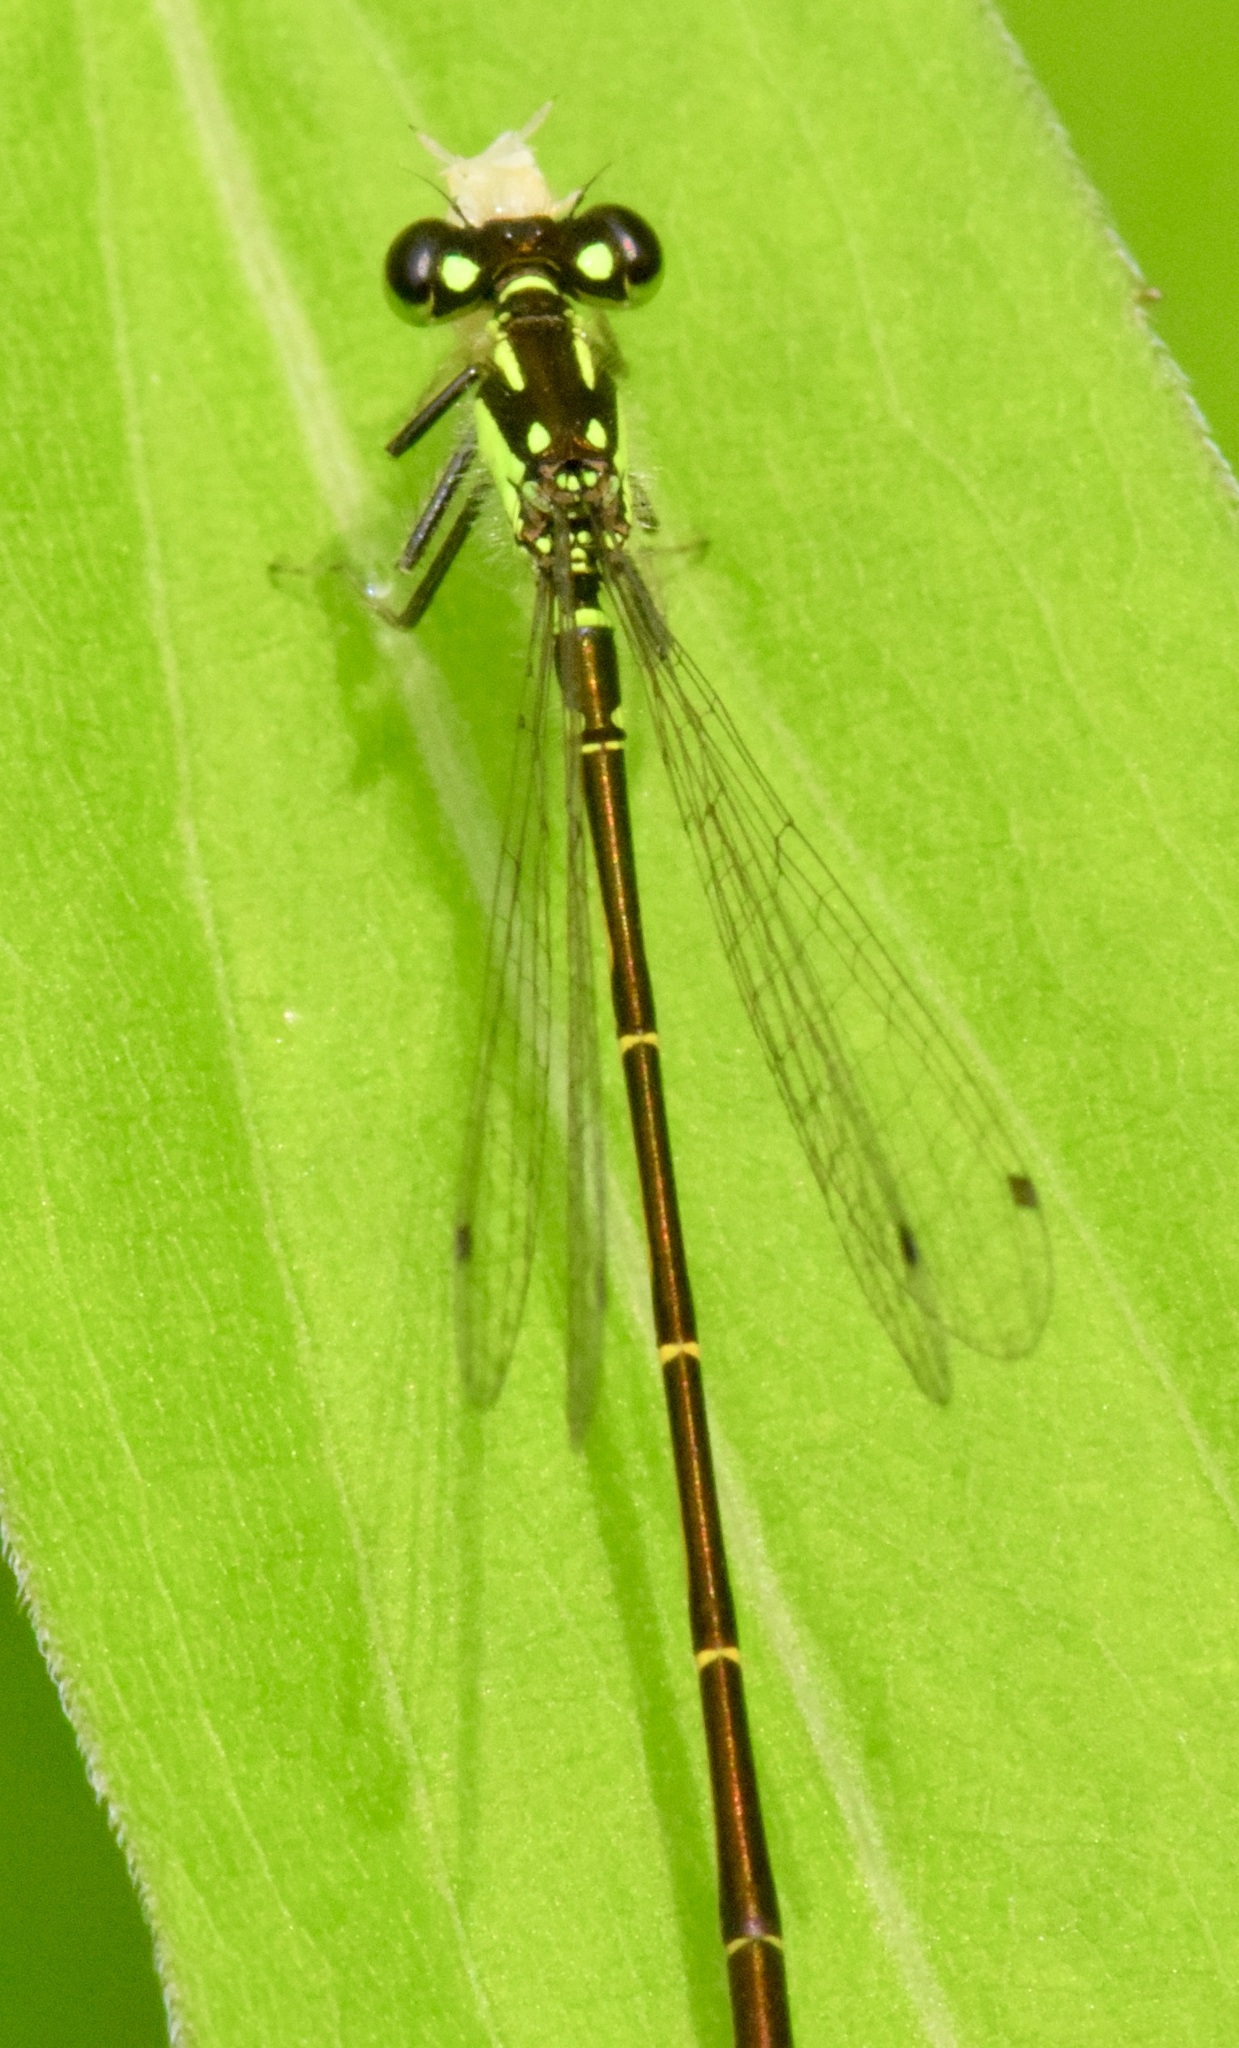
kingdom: Animalia
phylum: Arthropoda
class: Insecta
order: Odonata
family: Coenagrionidae
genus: Ischnura
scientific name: Ischnura posita
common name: Fragile forktail
